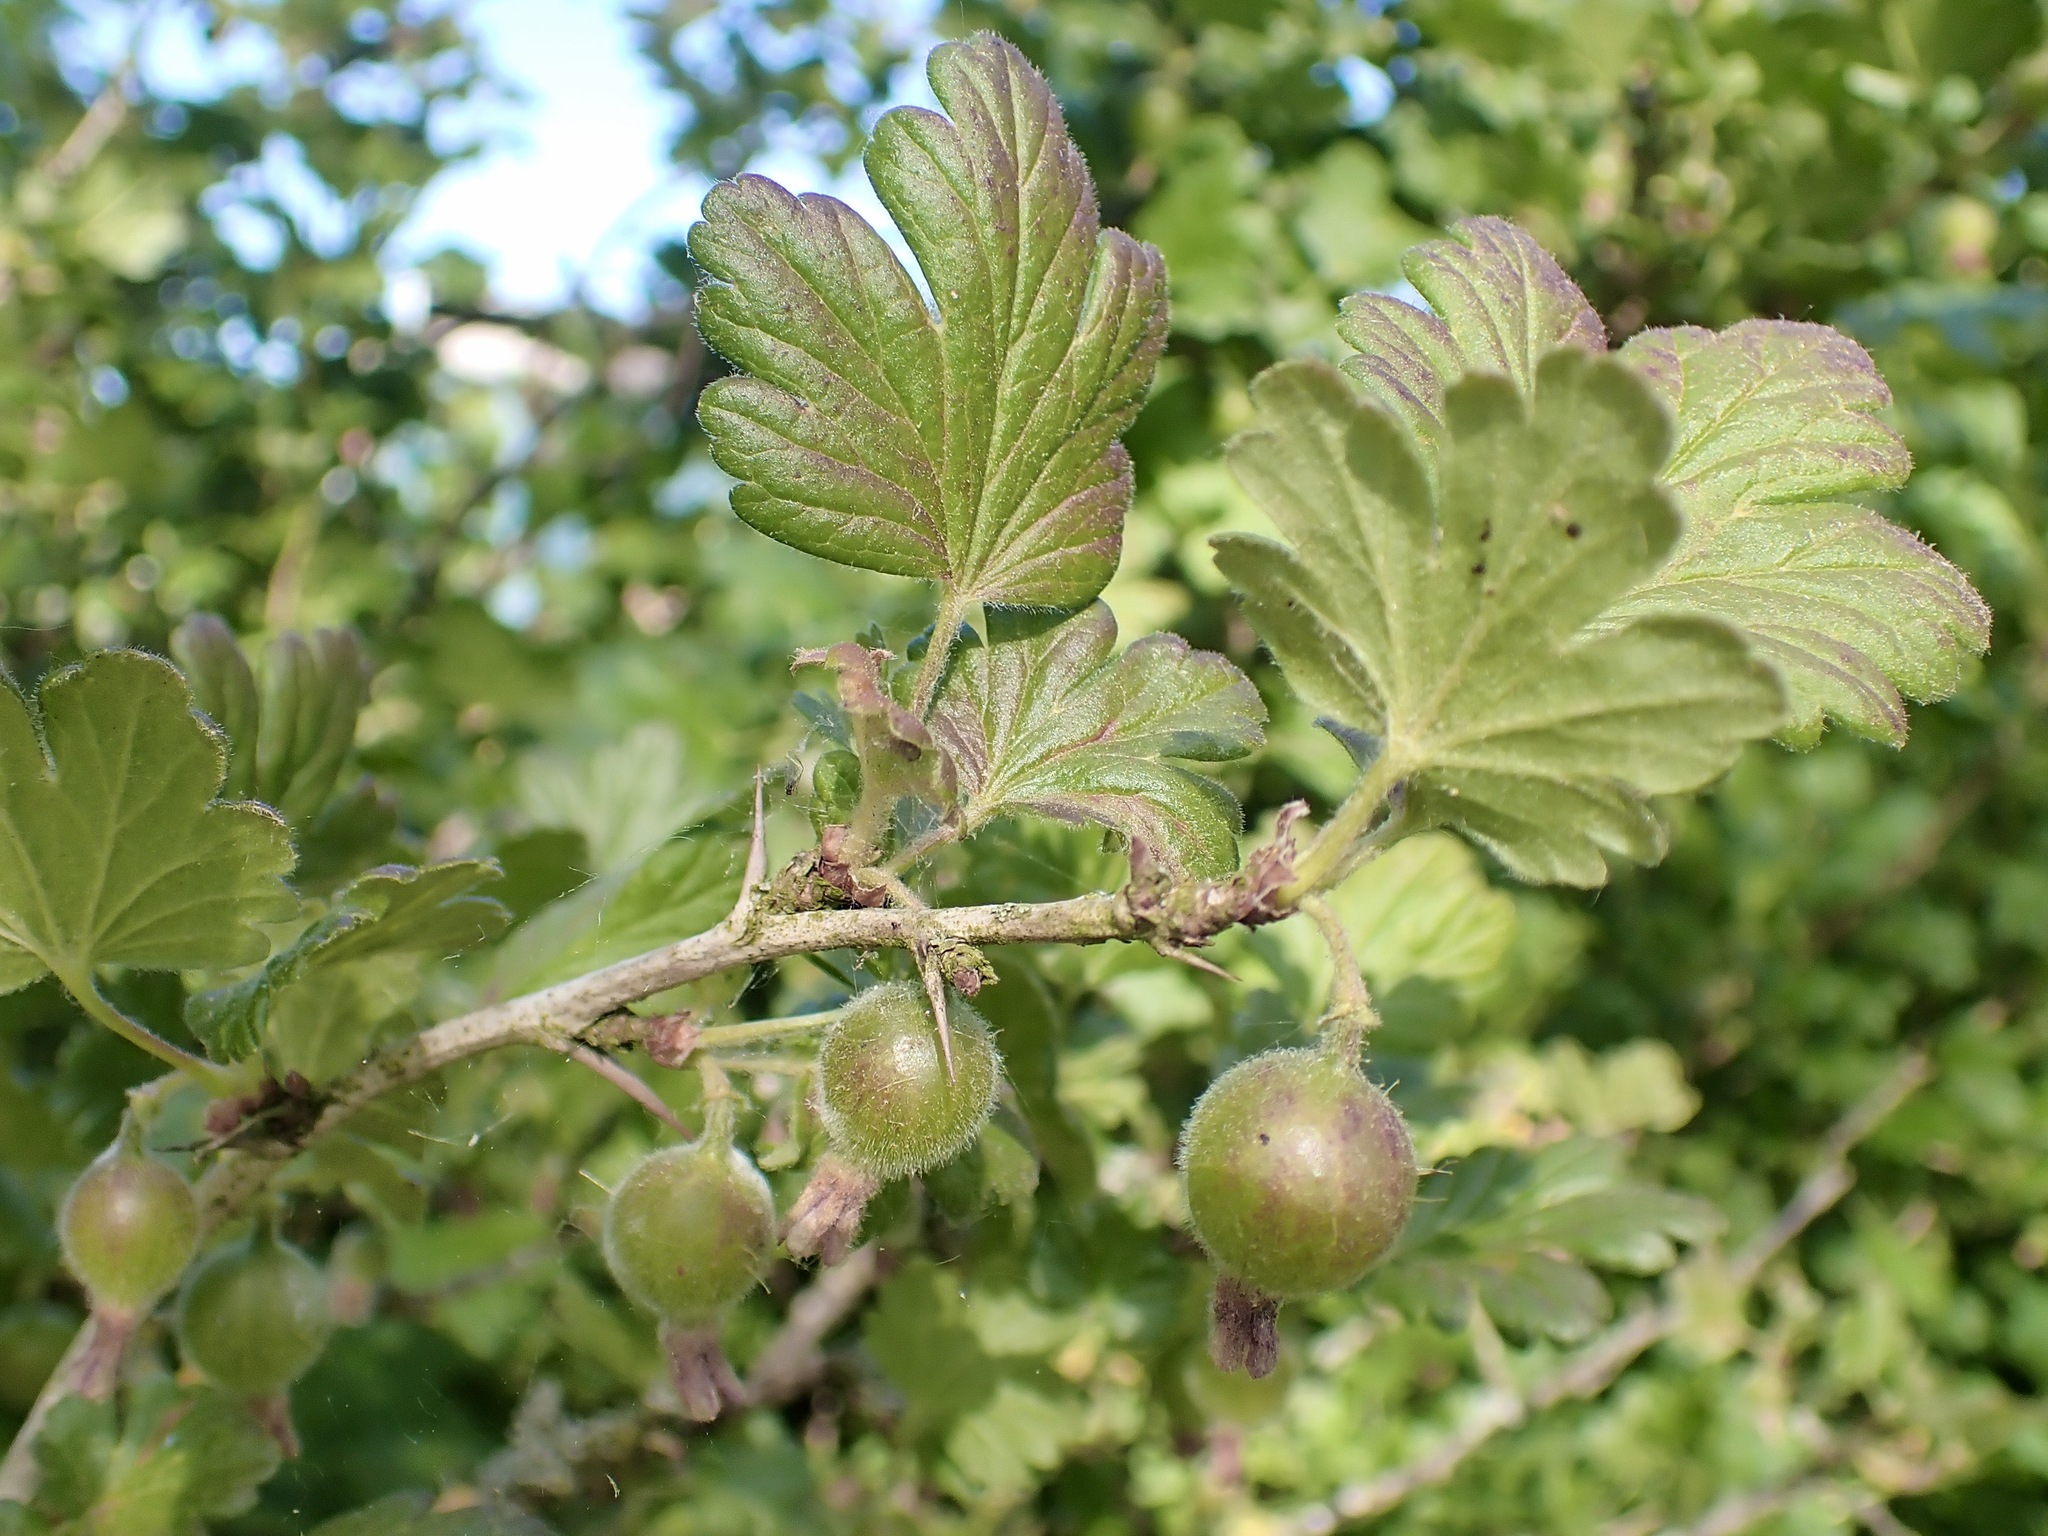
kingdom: Plantae
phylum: Tracheophyta
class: Magnoliopsida
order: Saxifragales
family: Grossulariaceae
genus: Ribes
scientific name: Ribes uva-crispa
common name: Gooseberry
